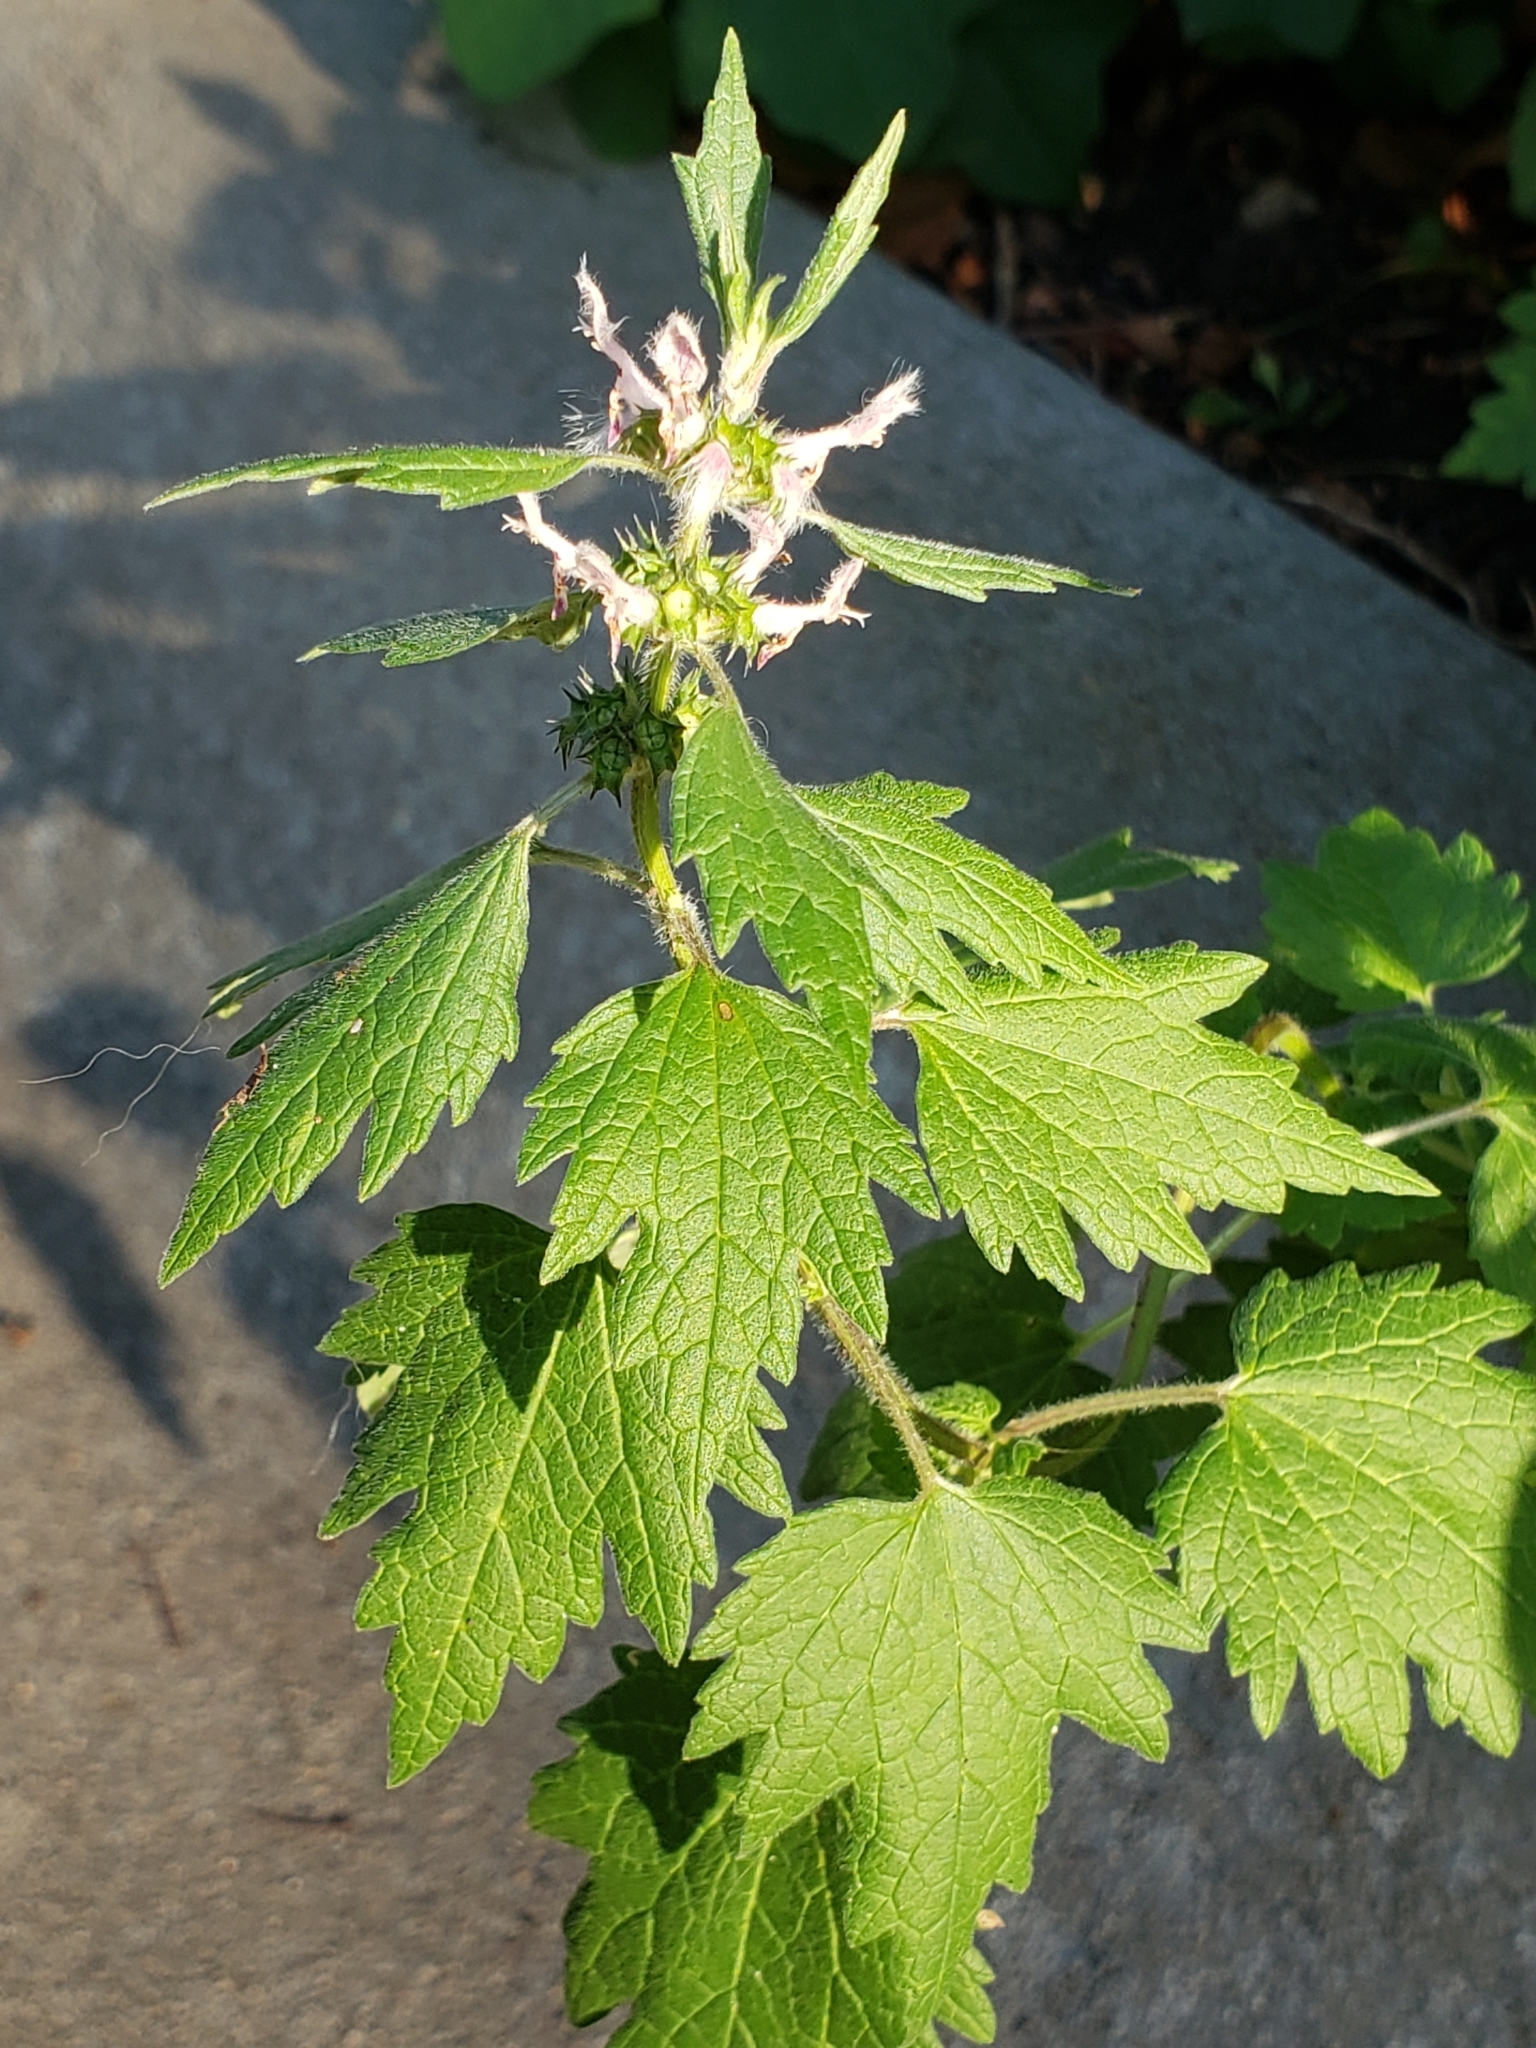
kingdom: Plantae
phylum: Tracheophyta
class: Magnoliopsida
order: Lamiales
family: Lamiaceae
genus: Leonurus
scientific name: Leonurus cardiaca
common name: Motherwort
